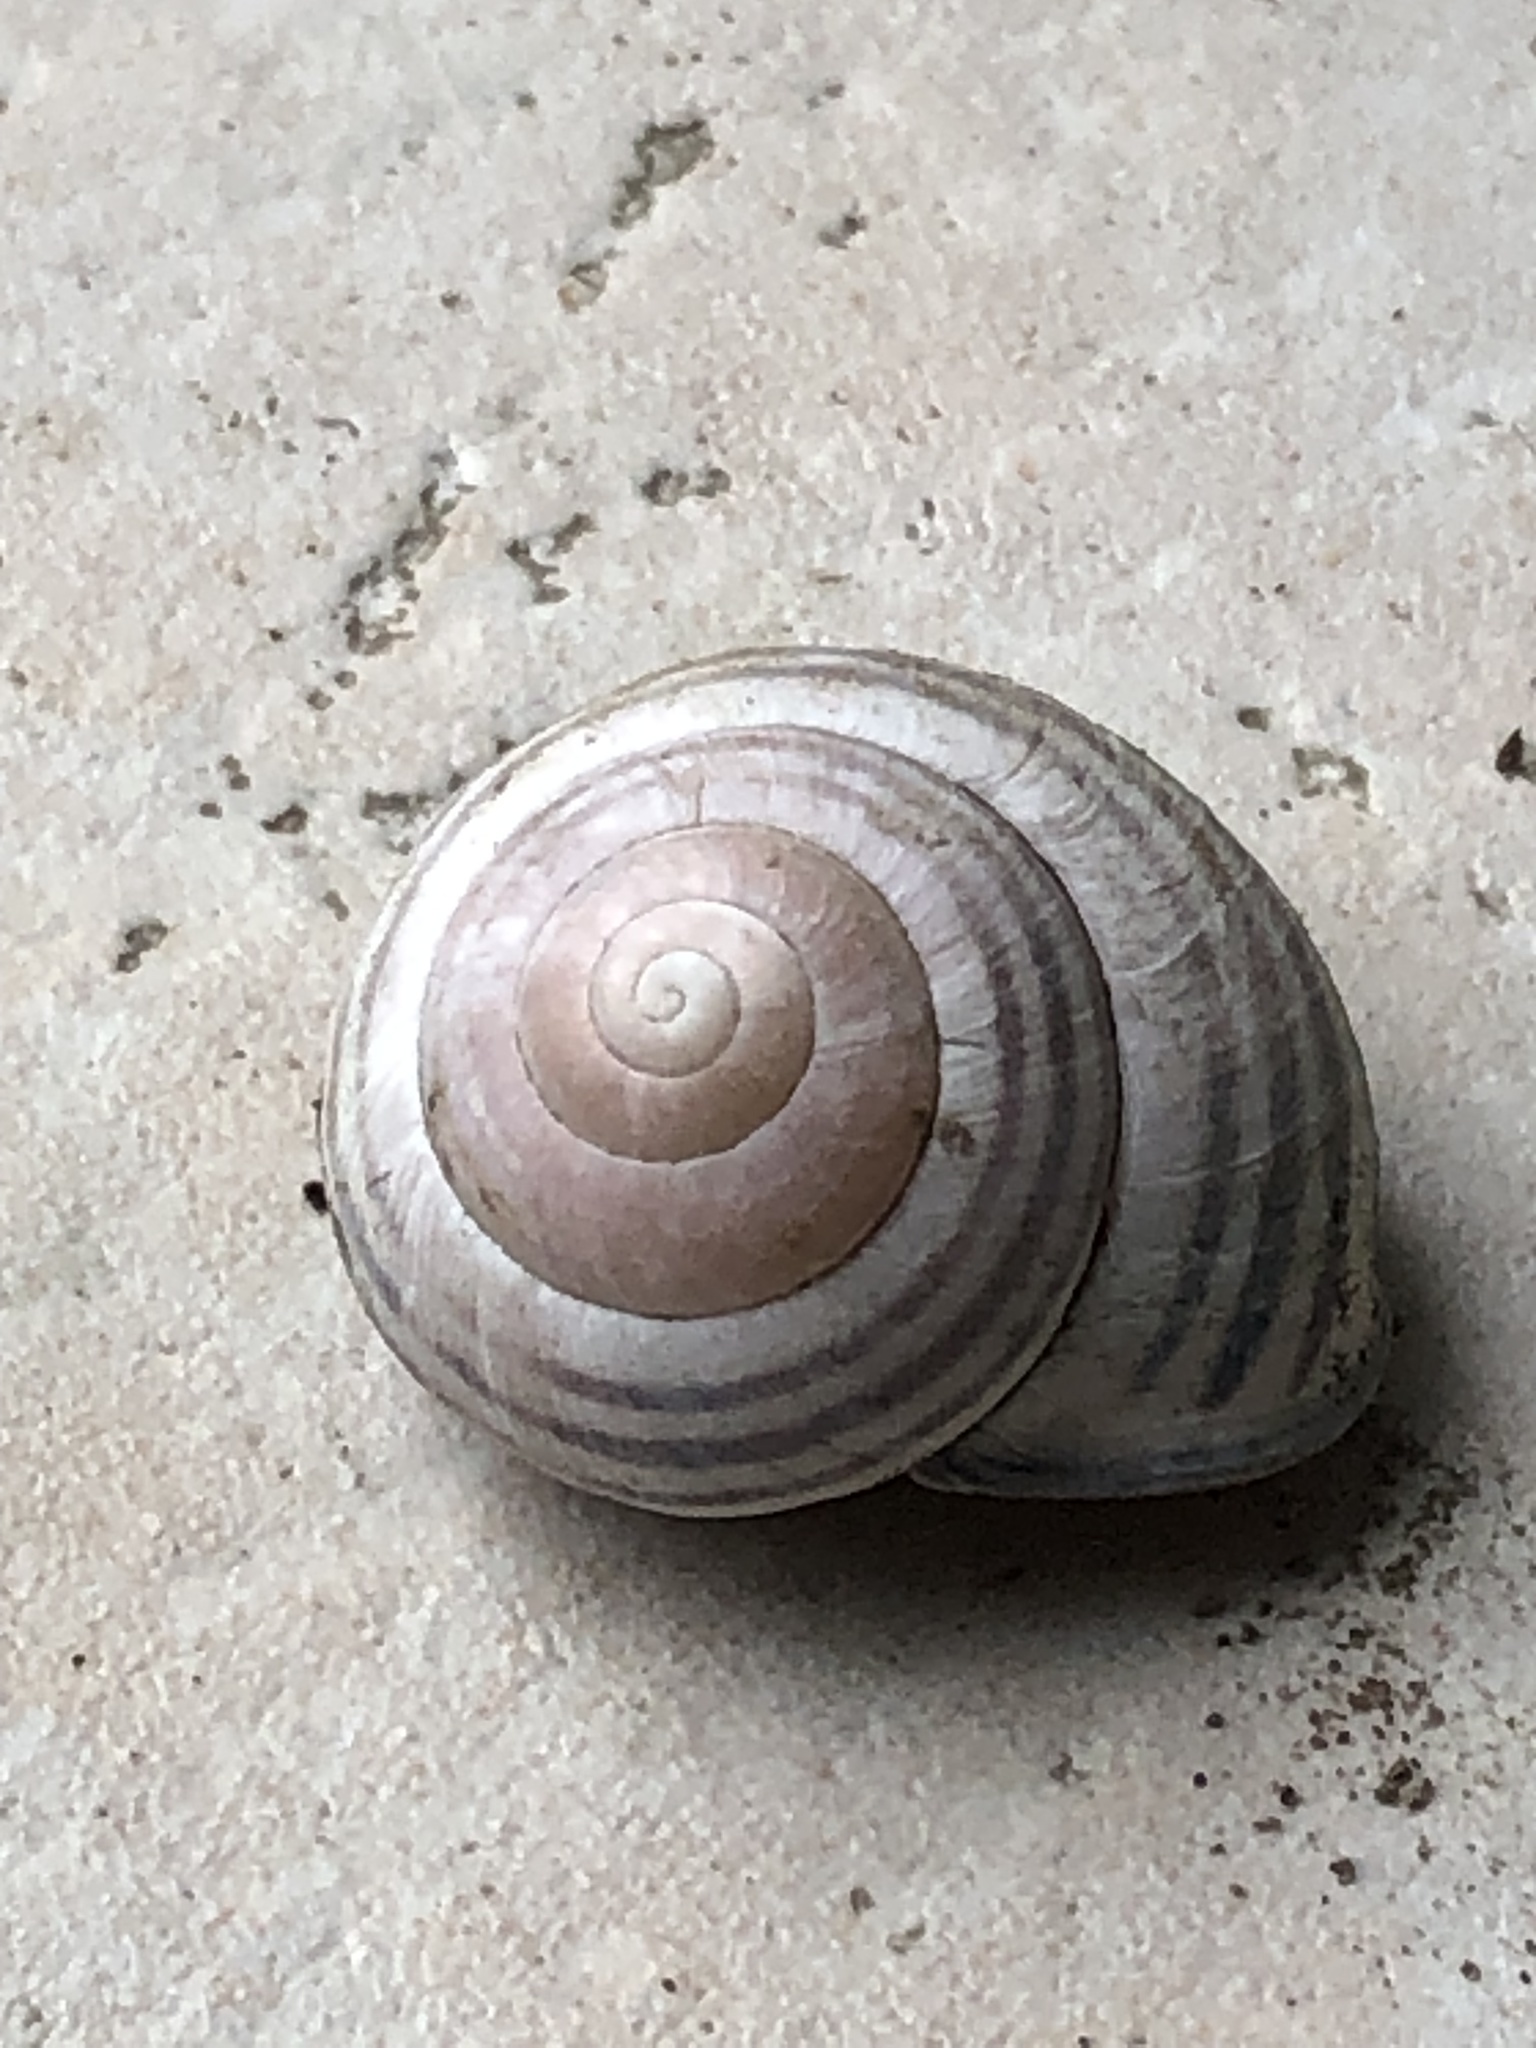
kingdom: Animalia
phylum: Mollusca
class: Gastropoda
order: Stylommatophora
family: Helicidae
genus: Cepaea
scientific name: Cepaea nemoralis
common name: Grovesnail
